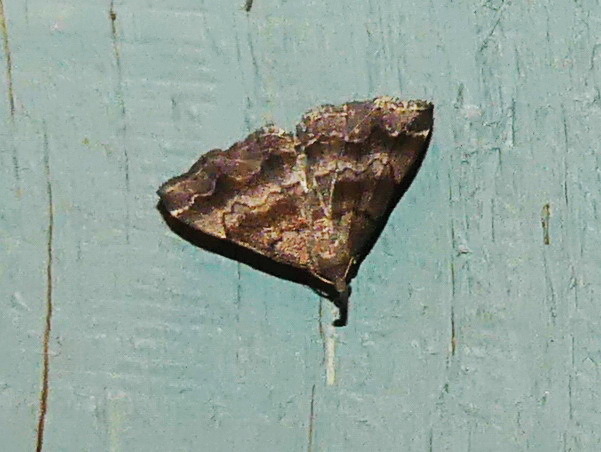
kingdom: Animalia
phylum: Arthropoda
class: Insecta
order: Lepidoptera
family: Erebidae
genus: Phalaenostola
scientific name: Phalaenostola larentioides
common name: Black-banded owlet
